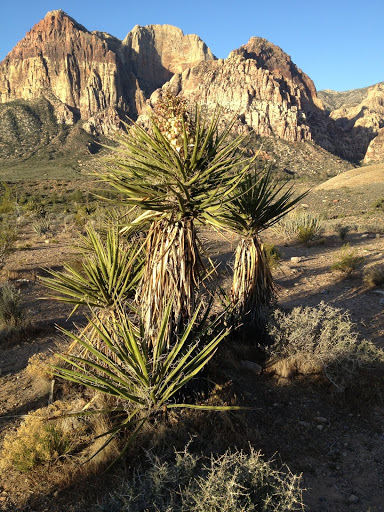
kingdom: Plantae
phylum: Tracheophyta
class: Liliopsida
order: Asparagales
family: Asparagaceae
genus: Yucca
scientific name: Yucca schidigera
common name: Mojave yucca
